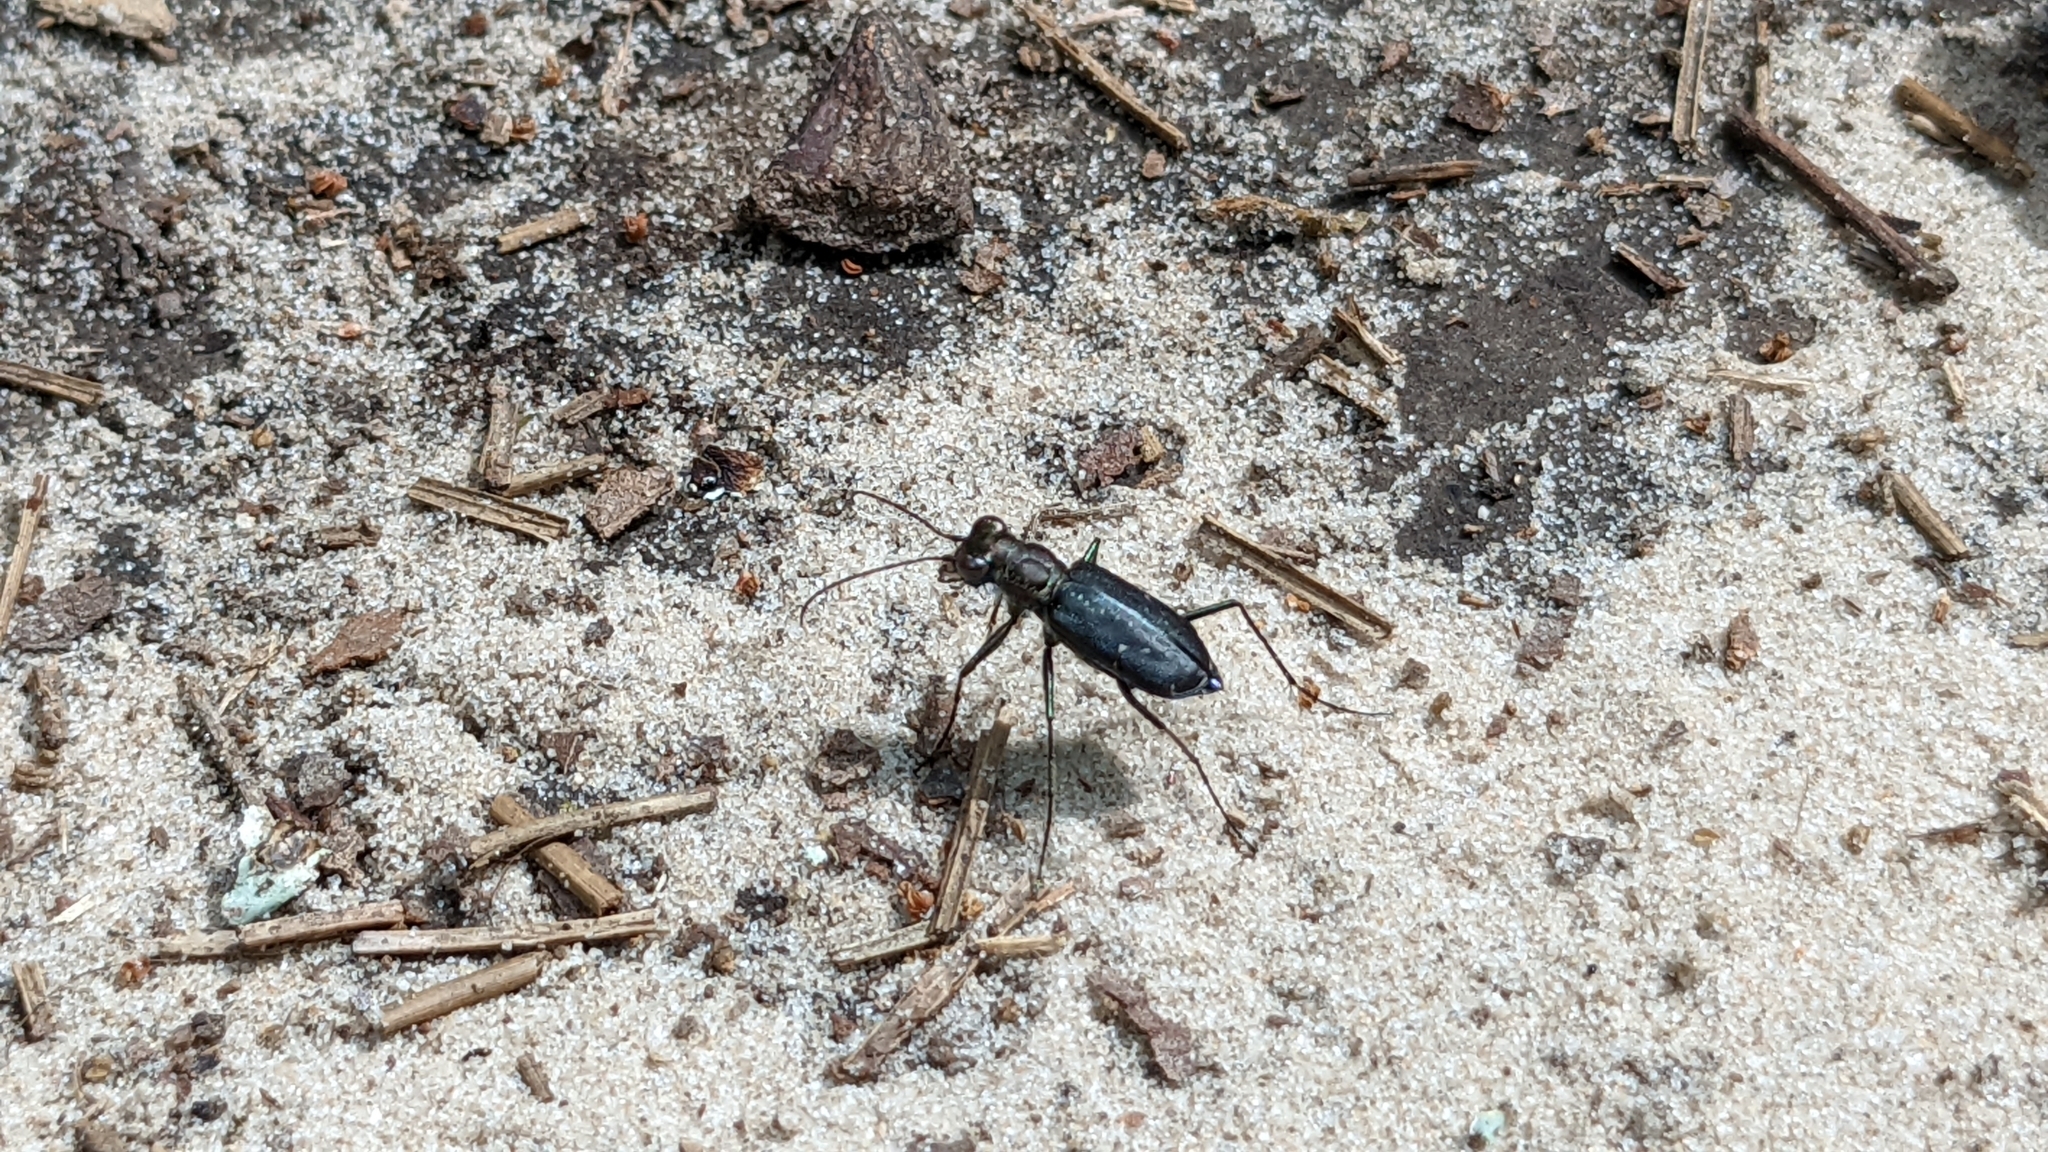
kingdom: Animalia
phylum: Arthropoda
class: Insecta
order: Coleoptera
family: Carabidae
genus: Cicindela
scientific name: Cicindela punctulata
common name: Punctured tiger beetle
